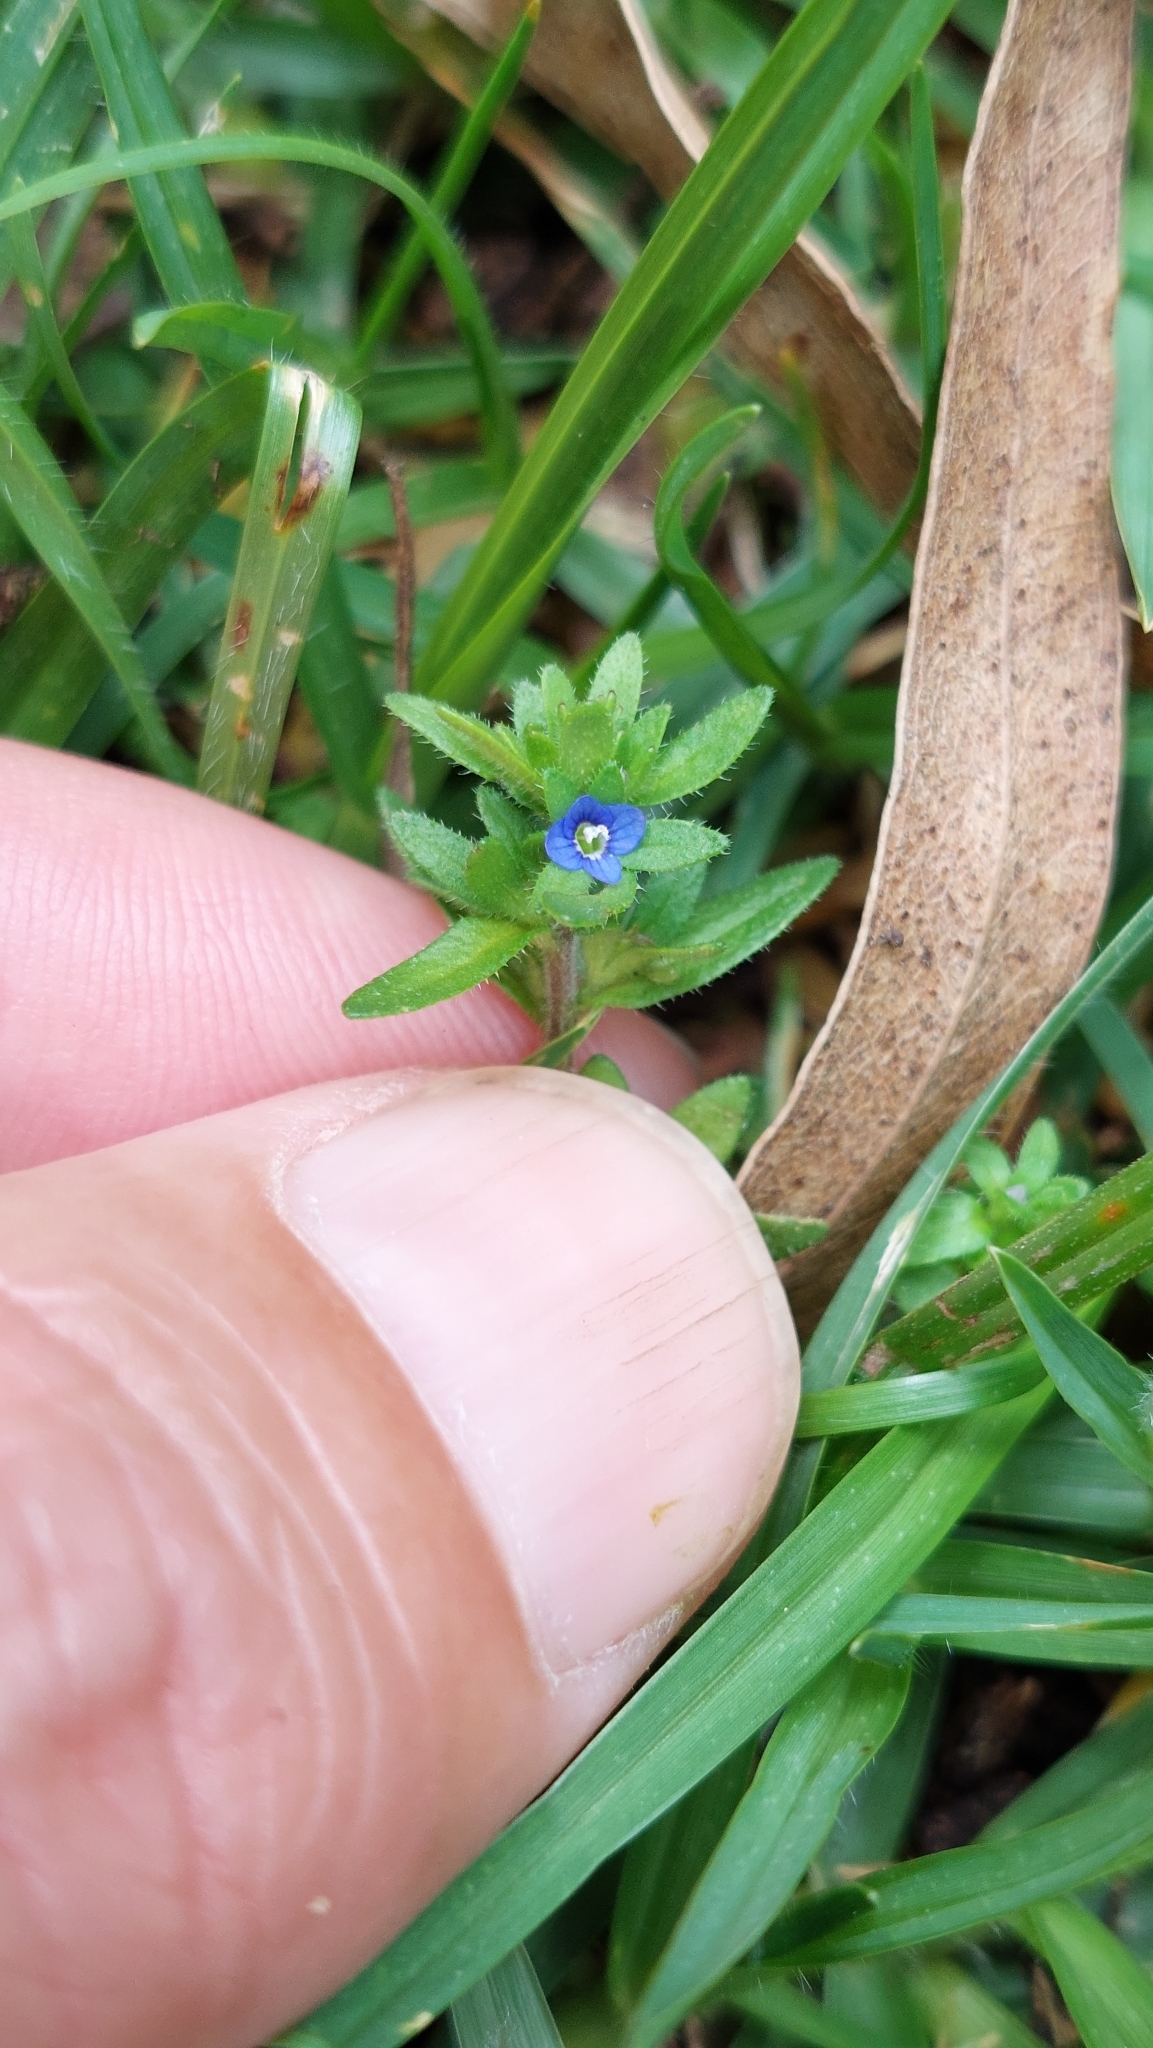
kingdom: Plantae
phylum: Tracheophyta
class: Magnoliopsida
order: Lamiales
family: Plantaginaceae
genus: Veronica
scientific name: Veronica arvensis
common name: Corn speedwell
